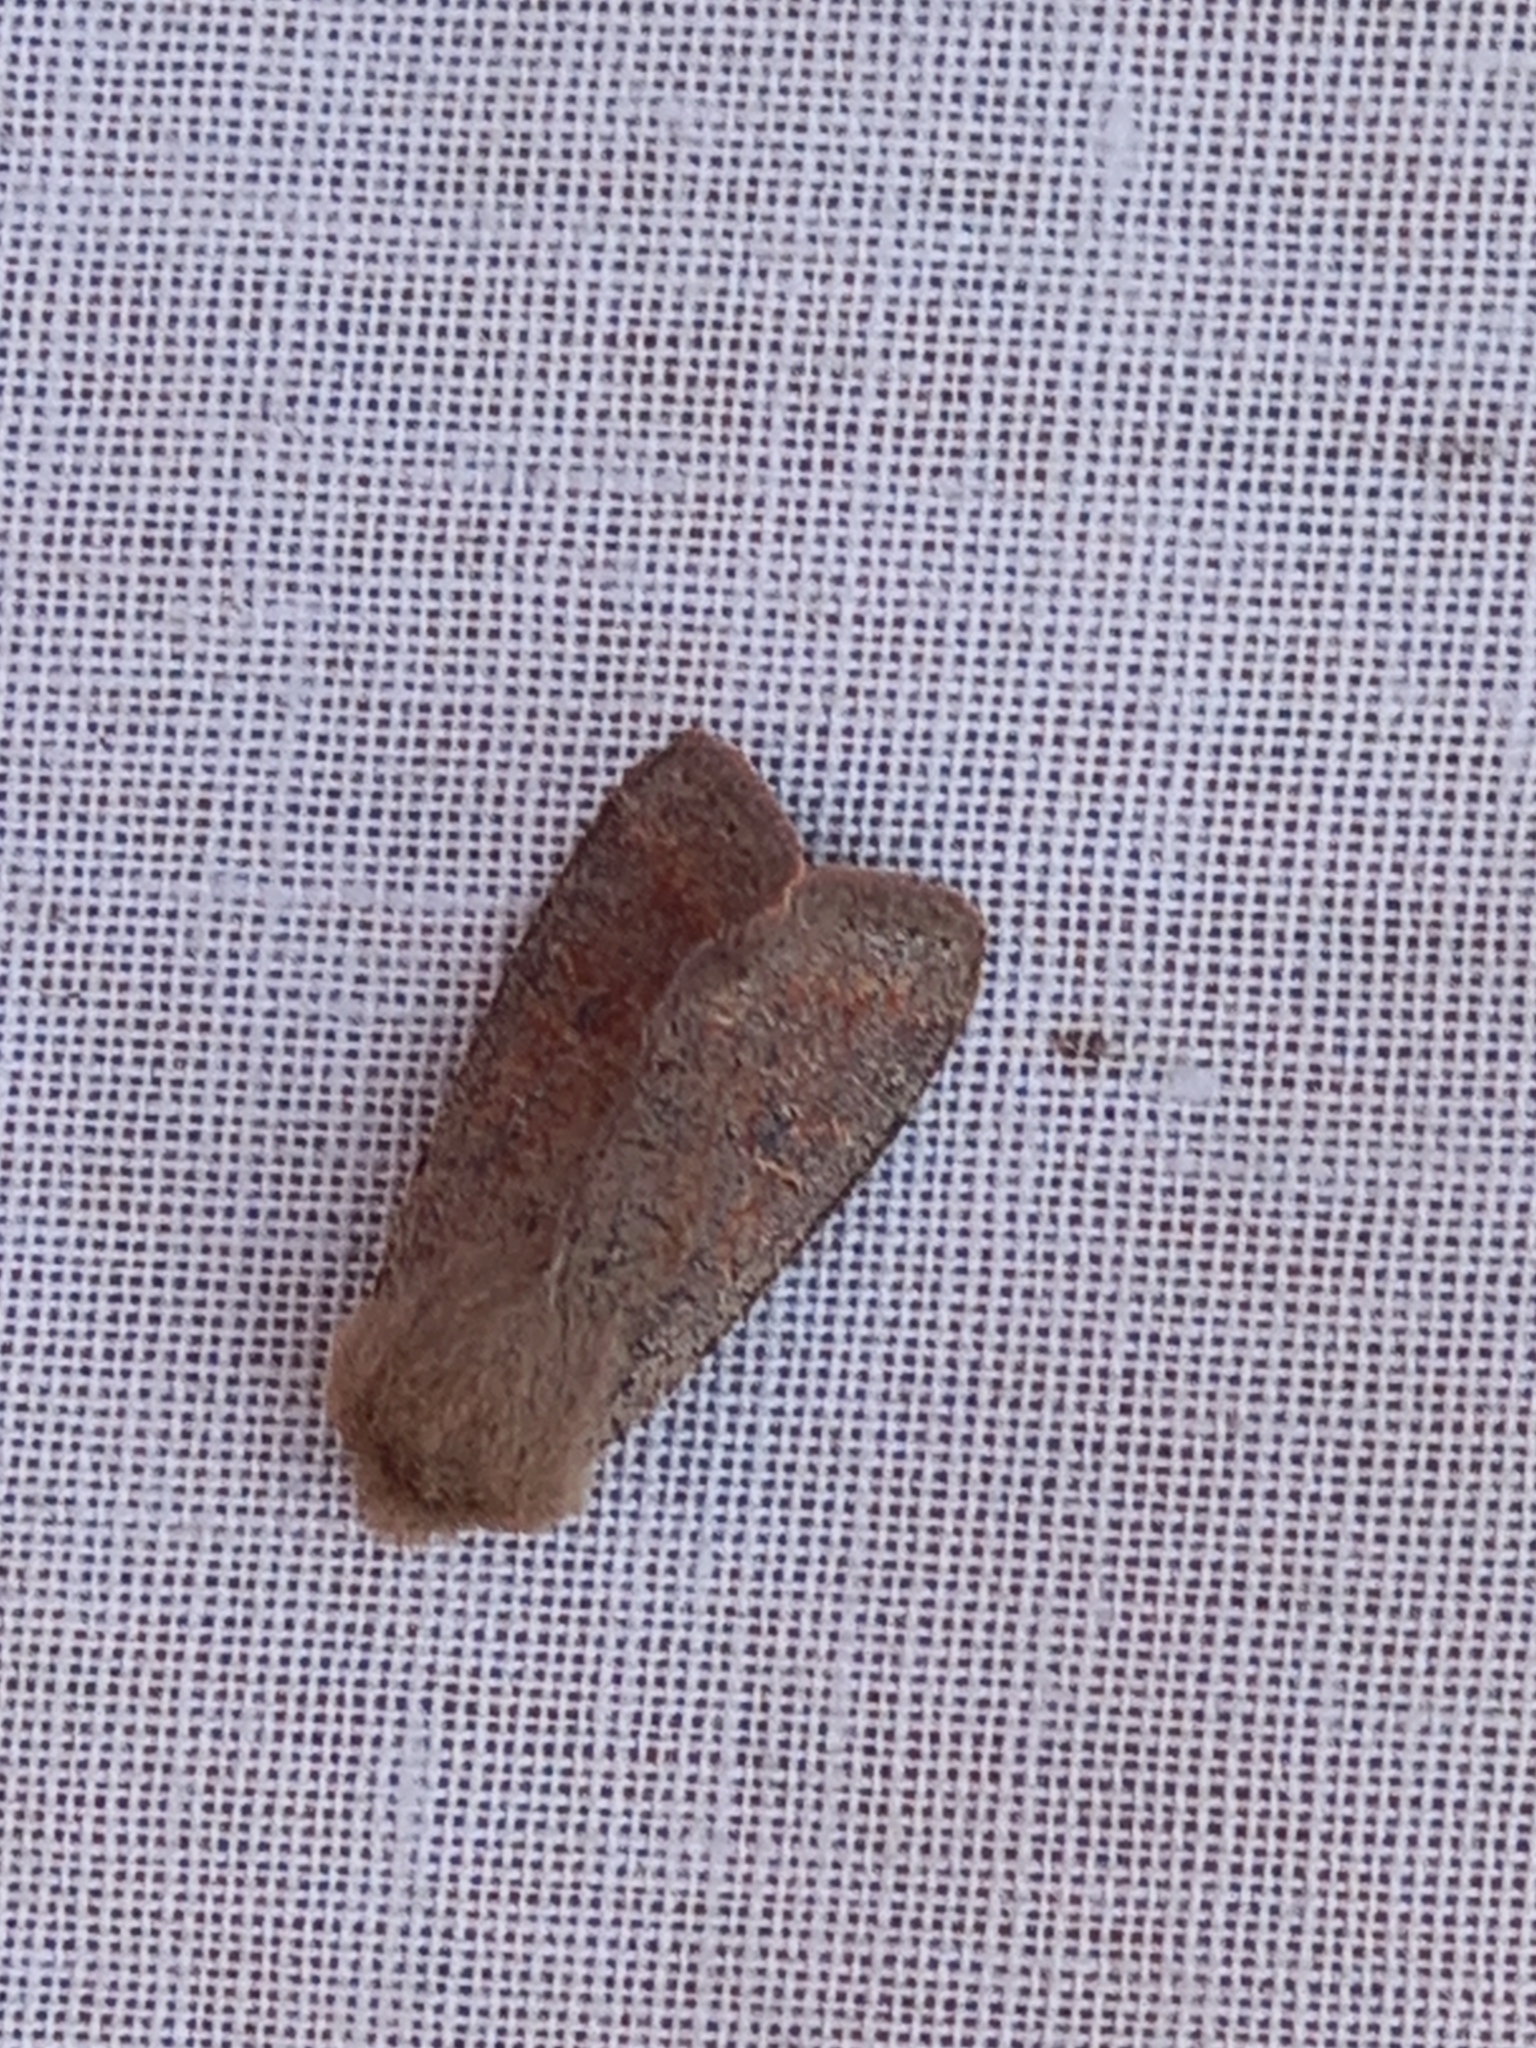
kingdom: Animalia
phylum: Arthropoda
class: Insecta
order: Lepidoptera
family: Noctuidae
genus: Orthosia
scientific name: Orthosia cruda
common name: Small quaker
